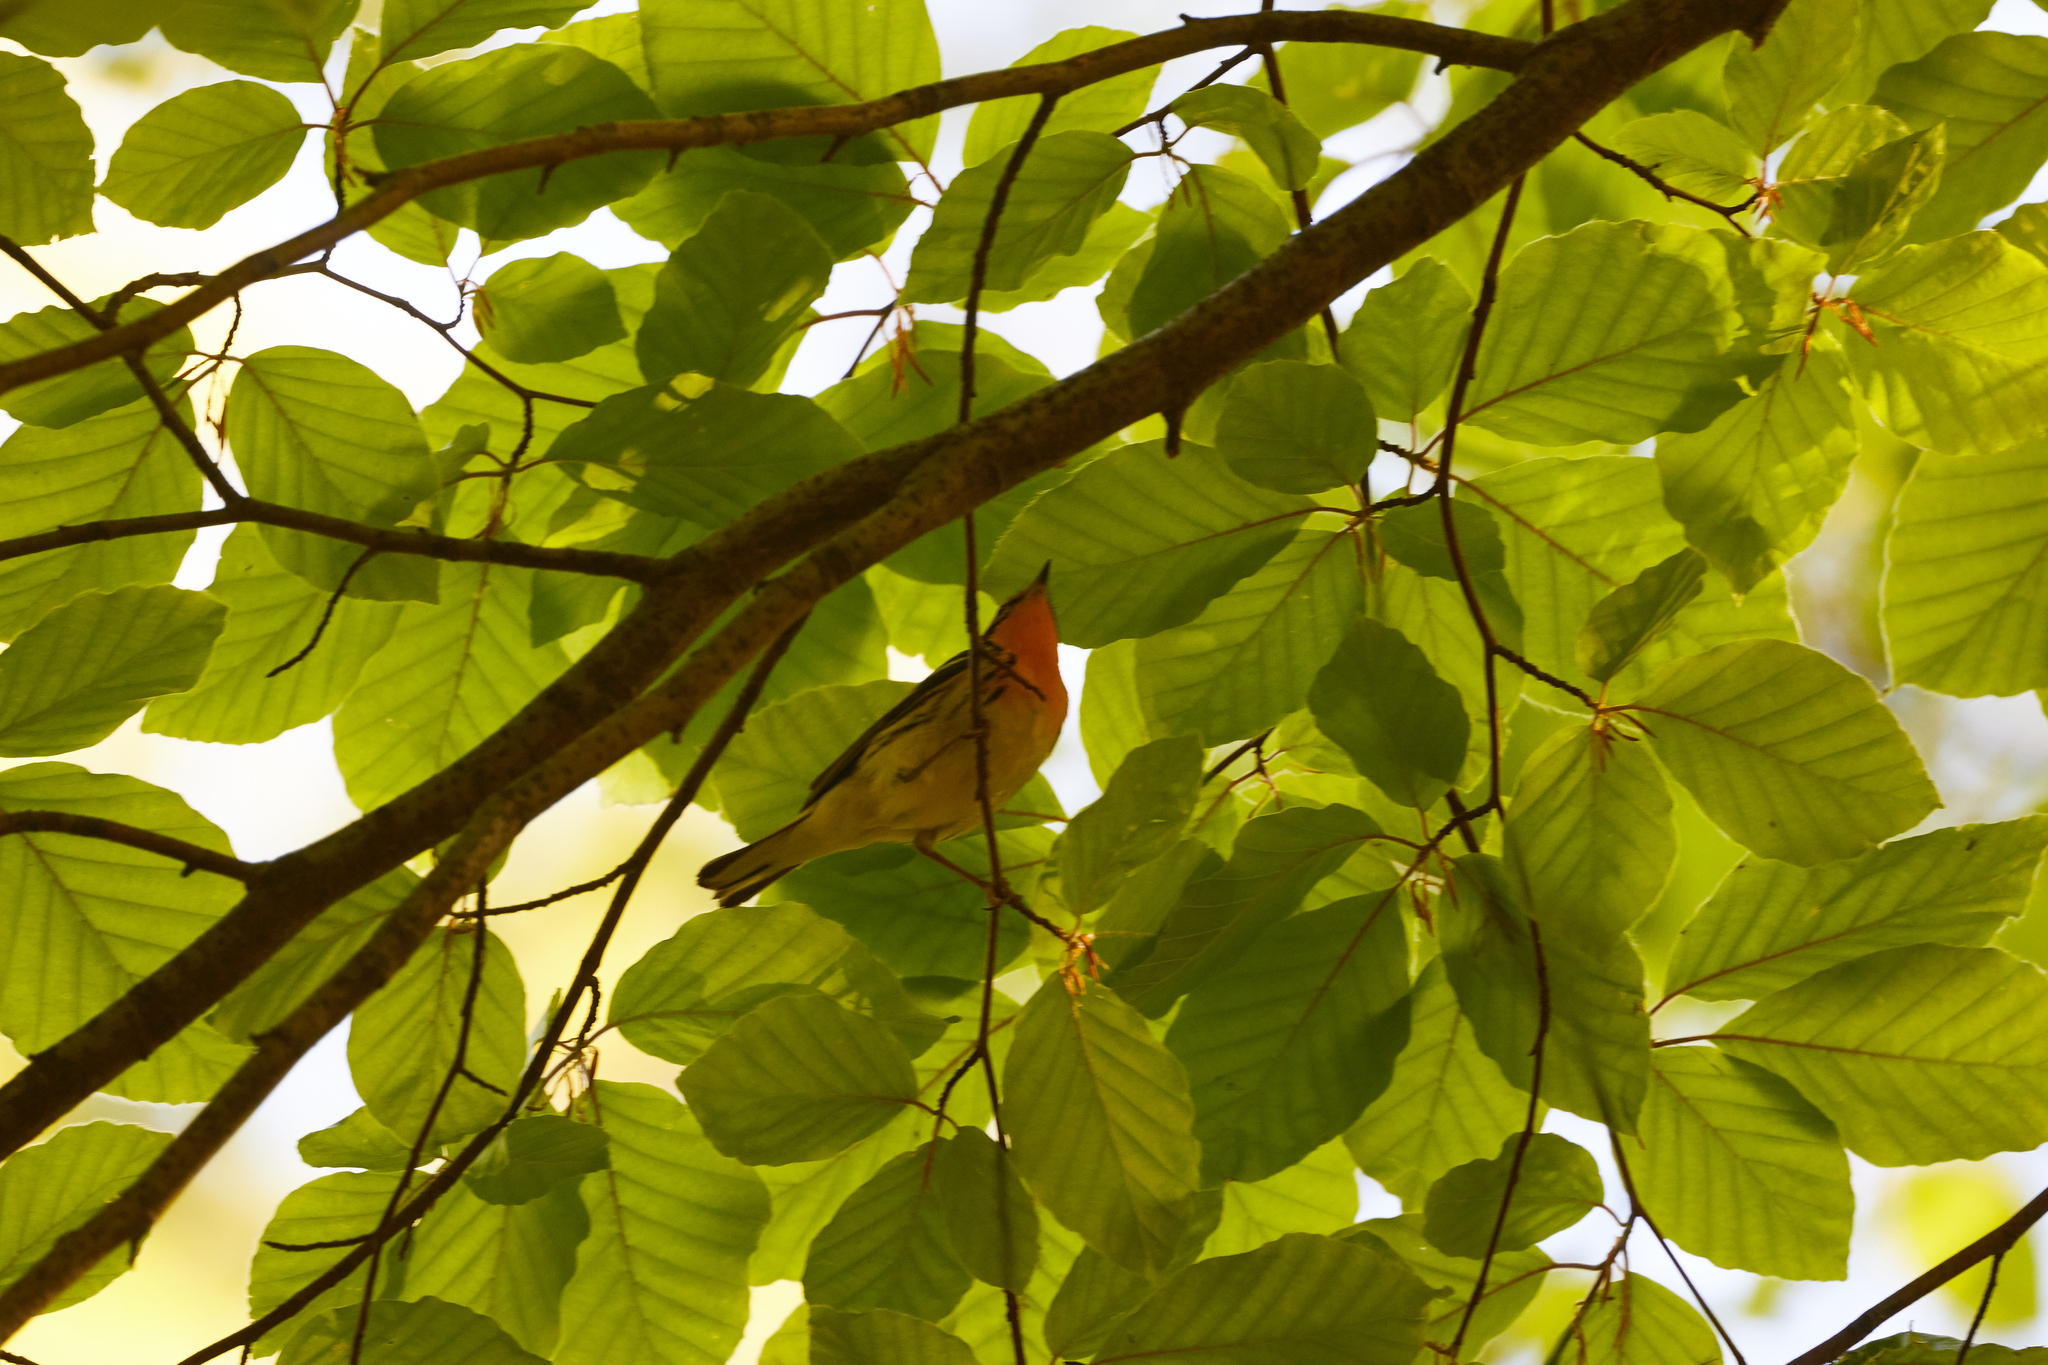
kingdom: Animalia
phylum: Chordata
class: Aves
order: Passeriformes
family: Parulidae
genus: Setophaga
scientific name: Setophaga fusca
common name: Blackburnian warbler
